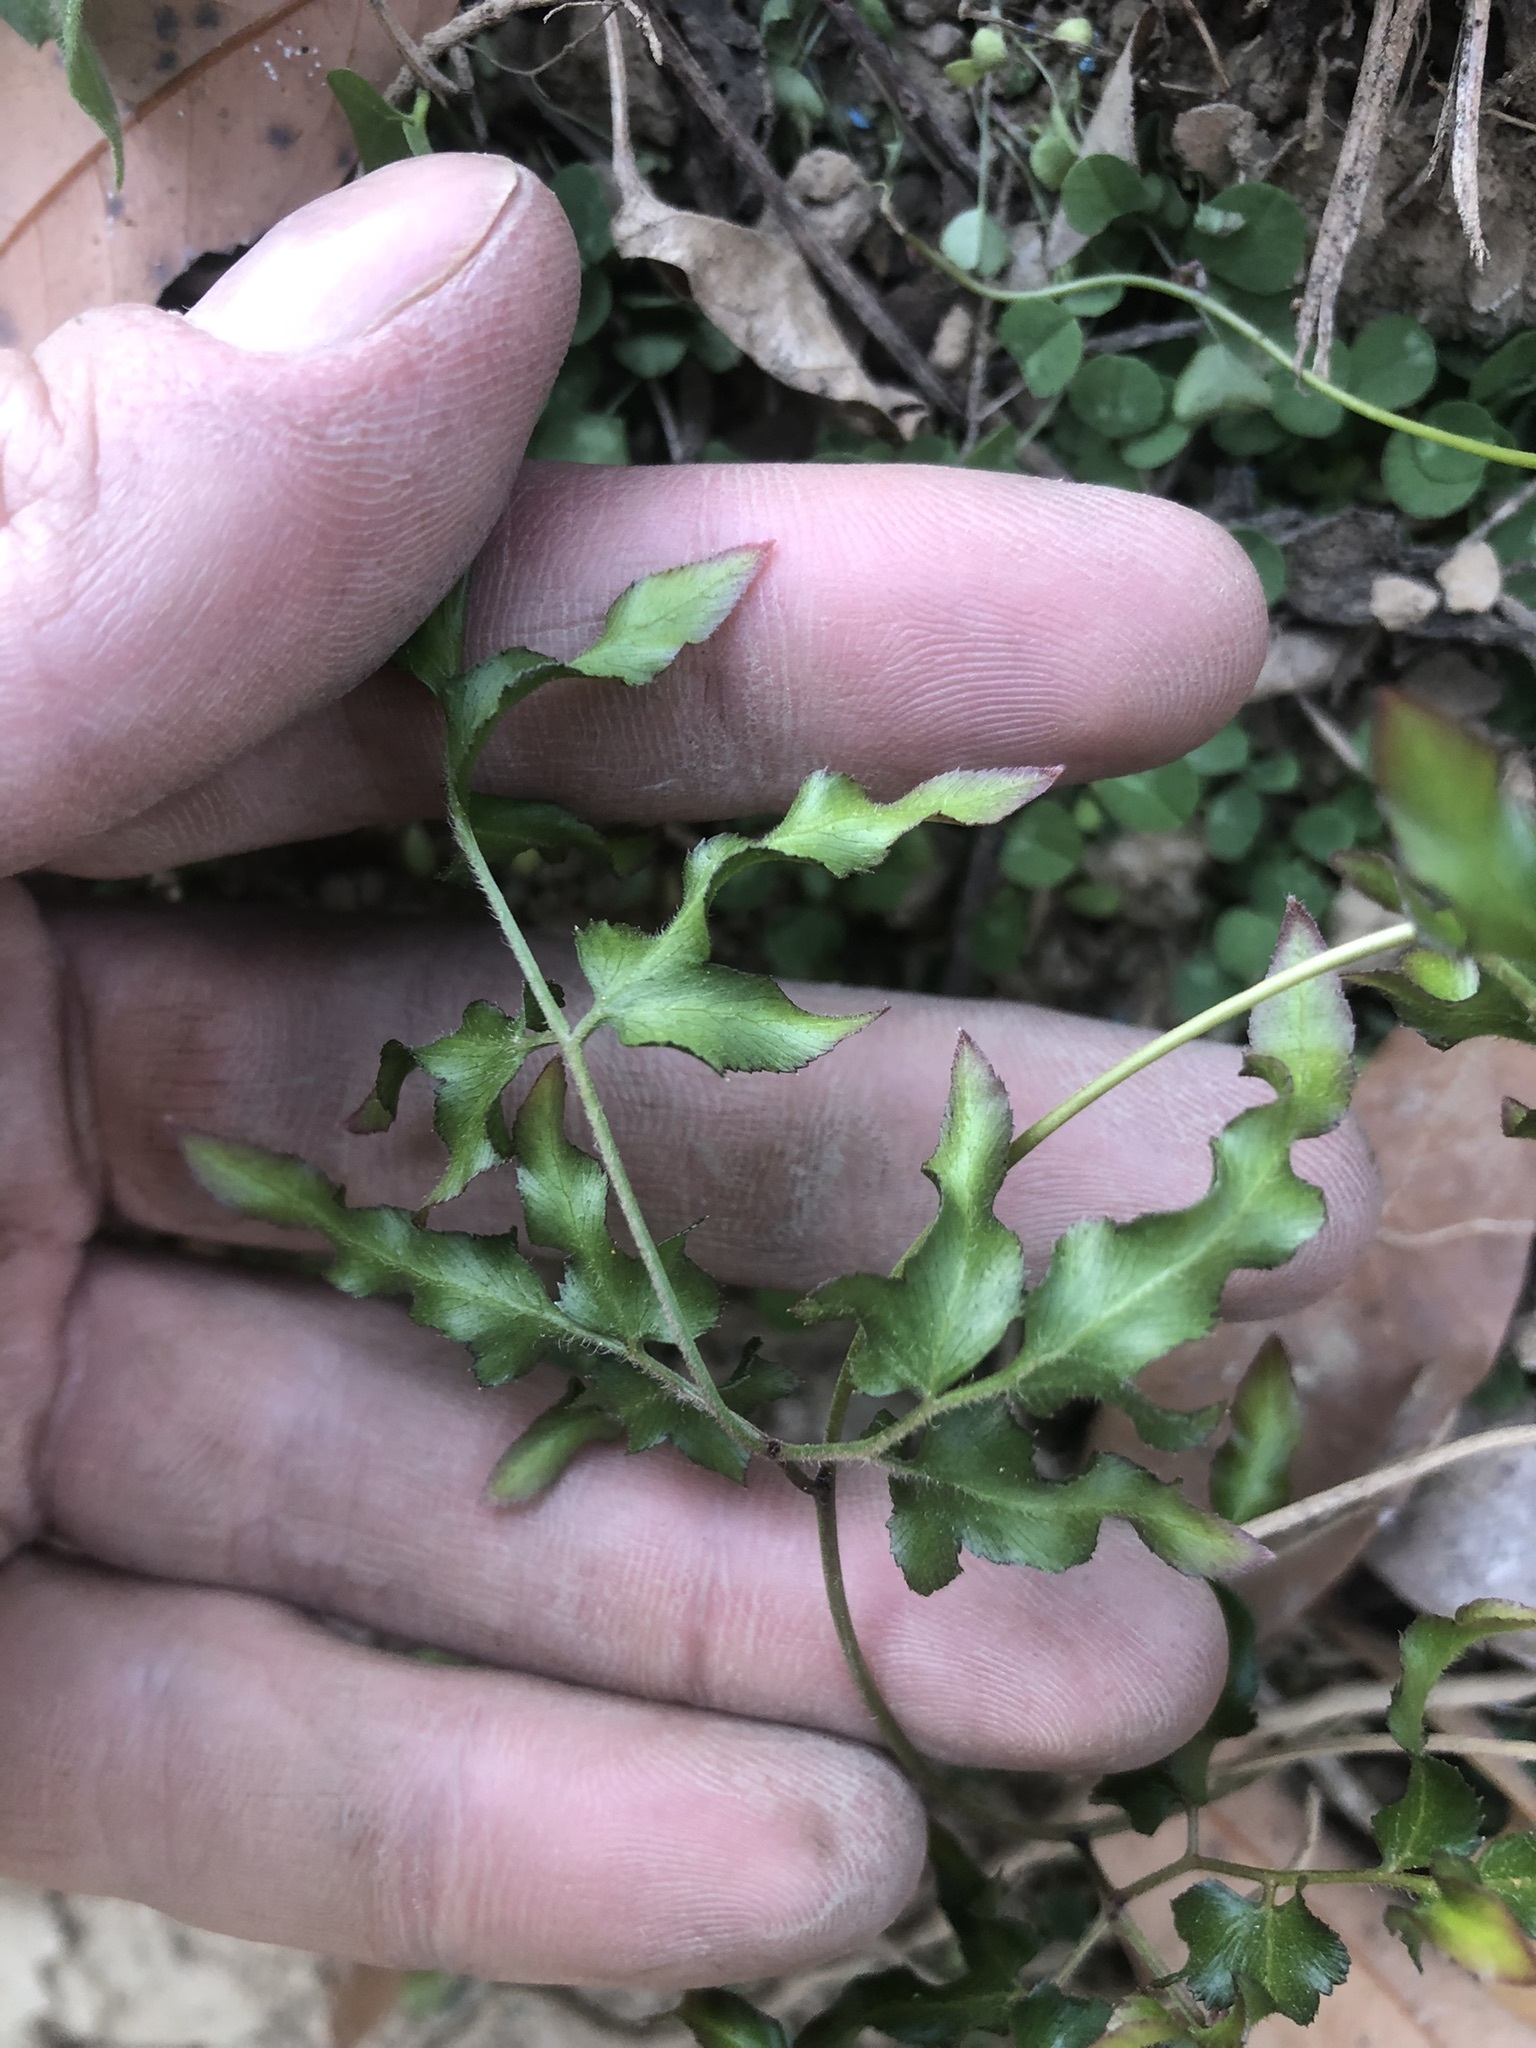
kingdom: Plantae
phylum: Tracheophyta
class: Polypodiopsida
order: Schizaeales
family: Lygodiaceae
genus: Lygodium
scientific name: Lygodium japonicum
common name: Japanese climbing fern
